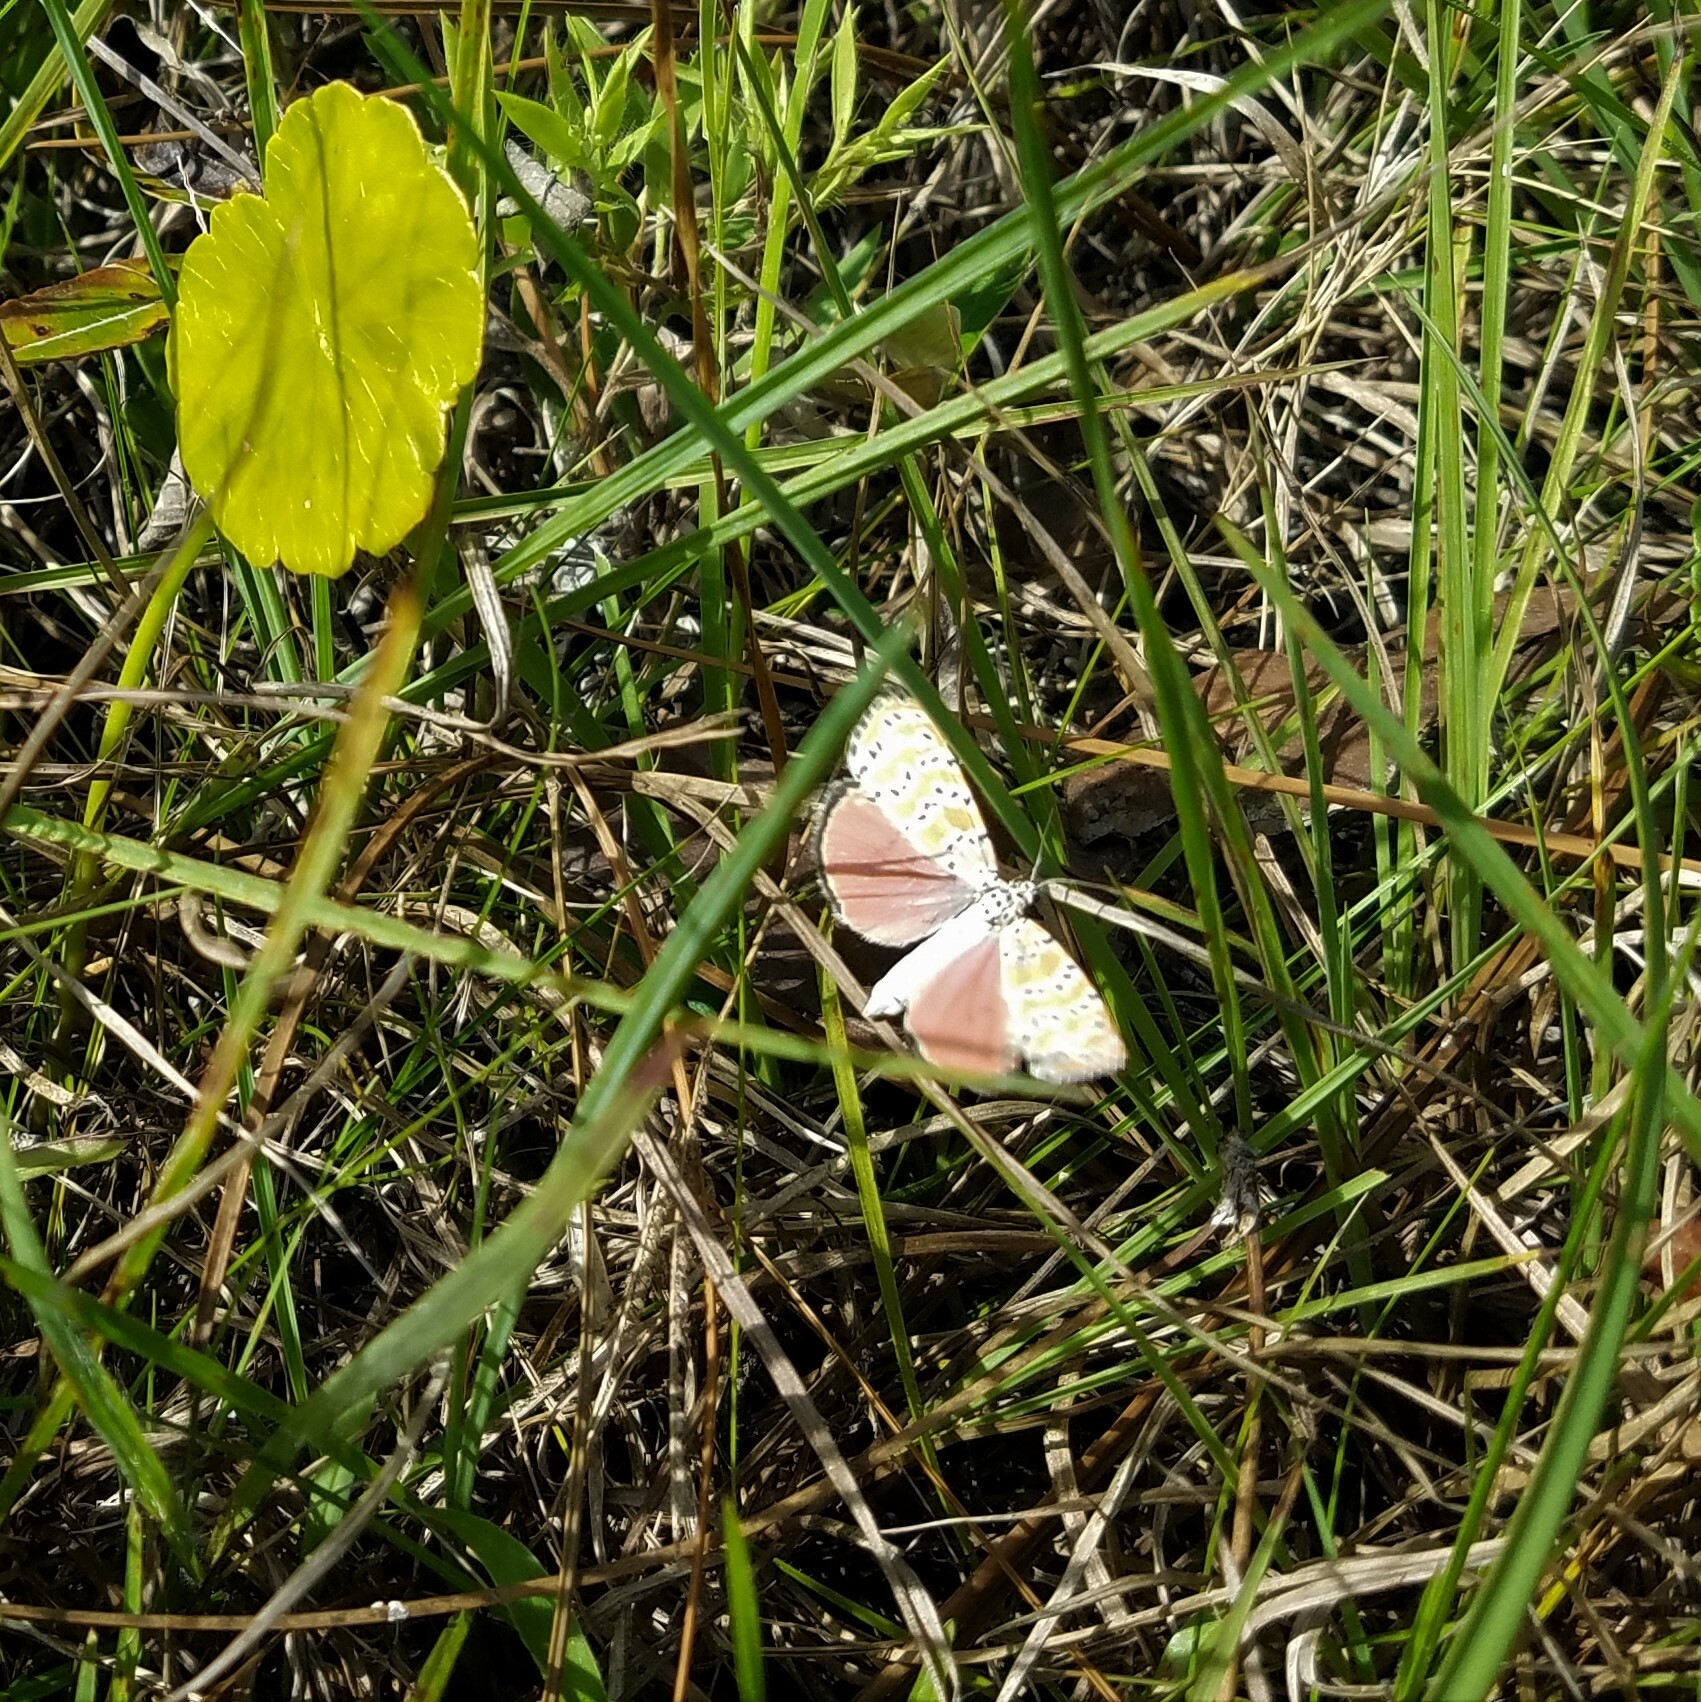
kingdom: Animalia
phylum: Arthropoda
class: Insecta
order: Lepidoptera
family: Erebidae
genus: Utetheisa
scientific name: Utetheisa ornatrix
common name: Beautiful utetheisa
